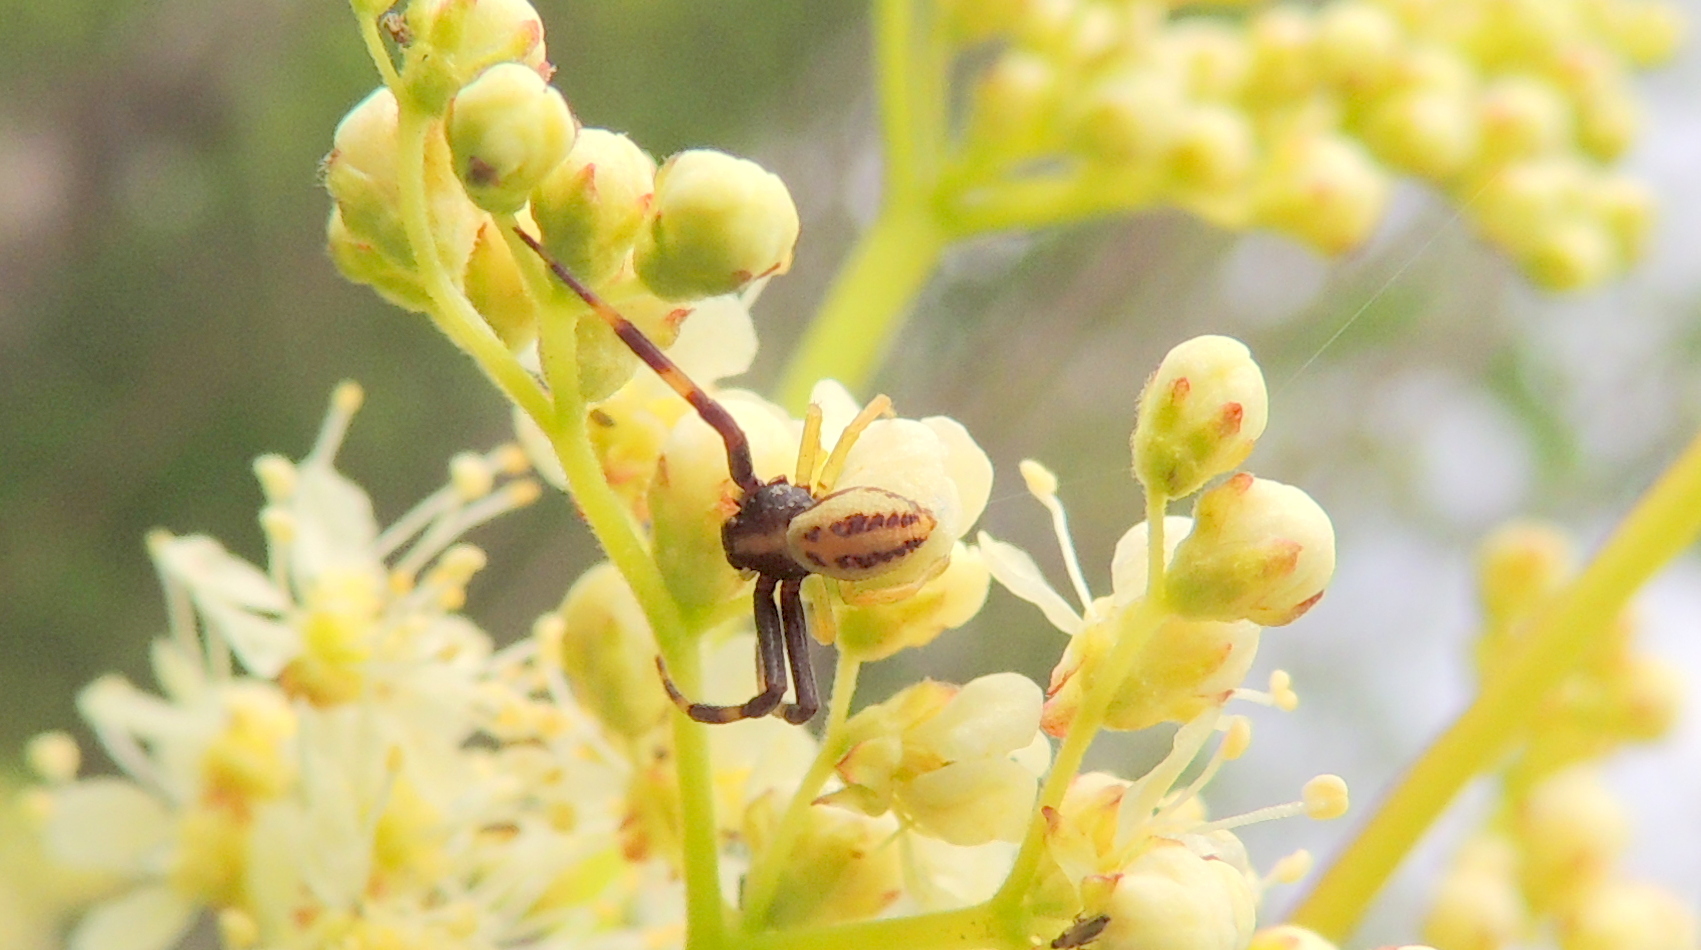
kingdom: Animalia
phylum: Arthropoda
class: Arachnida
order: Araneae
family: Thomisidae
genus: Misumena
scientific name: Misumena vatia
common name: Goldenrod crab spider
